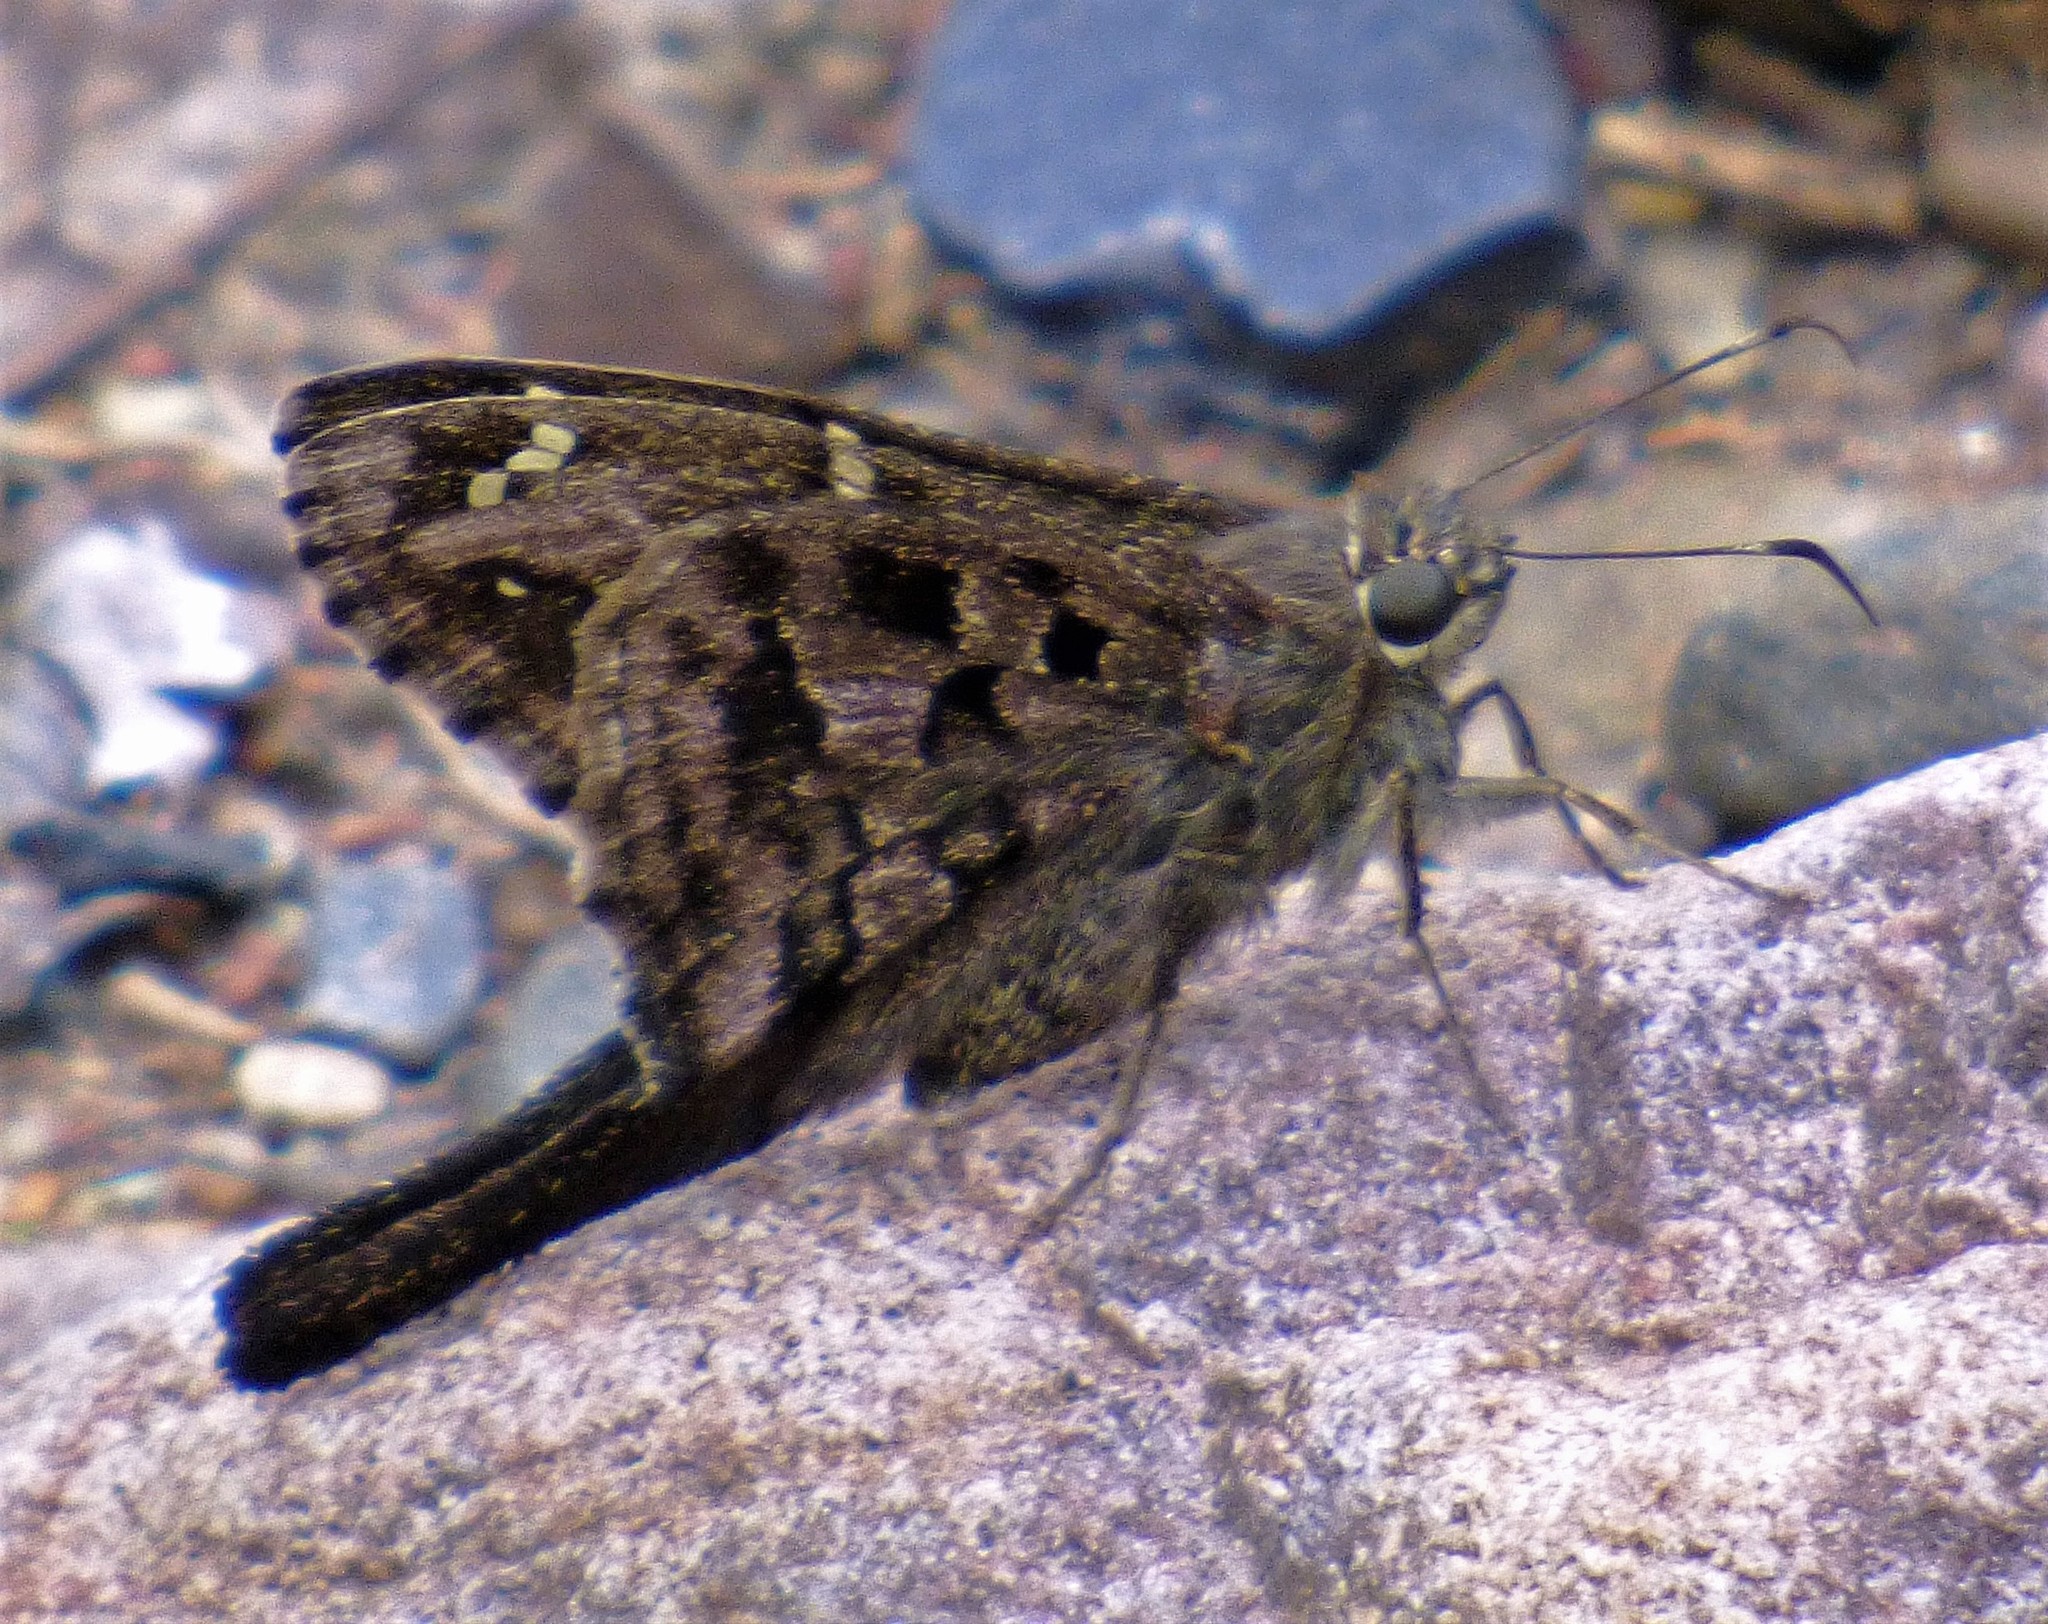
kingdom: Animalia
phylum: Arthropoda
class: Insecta
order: Lepidoptera
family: Hesperiidae
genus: Thorybes
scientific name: Thorybes
